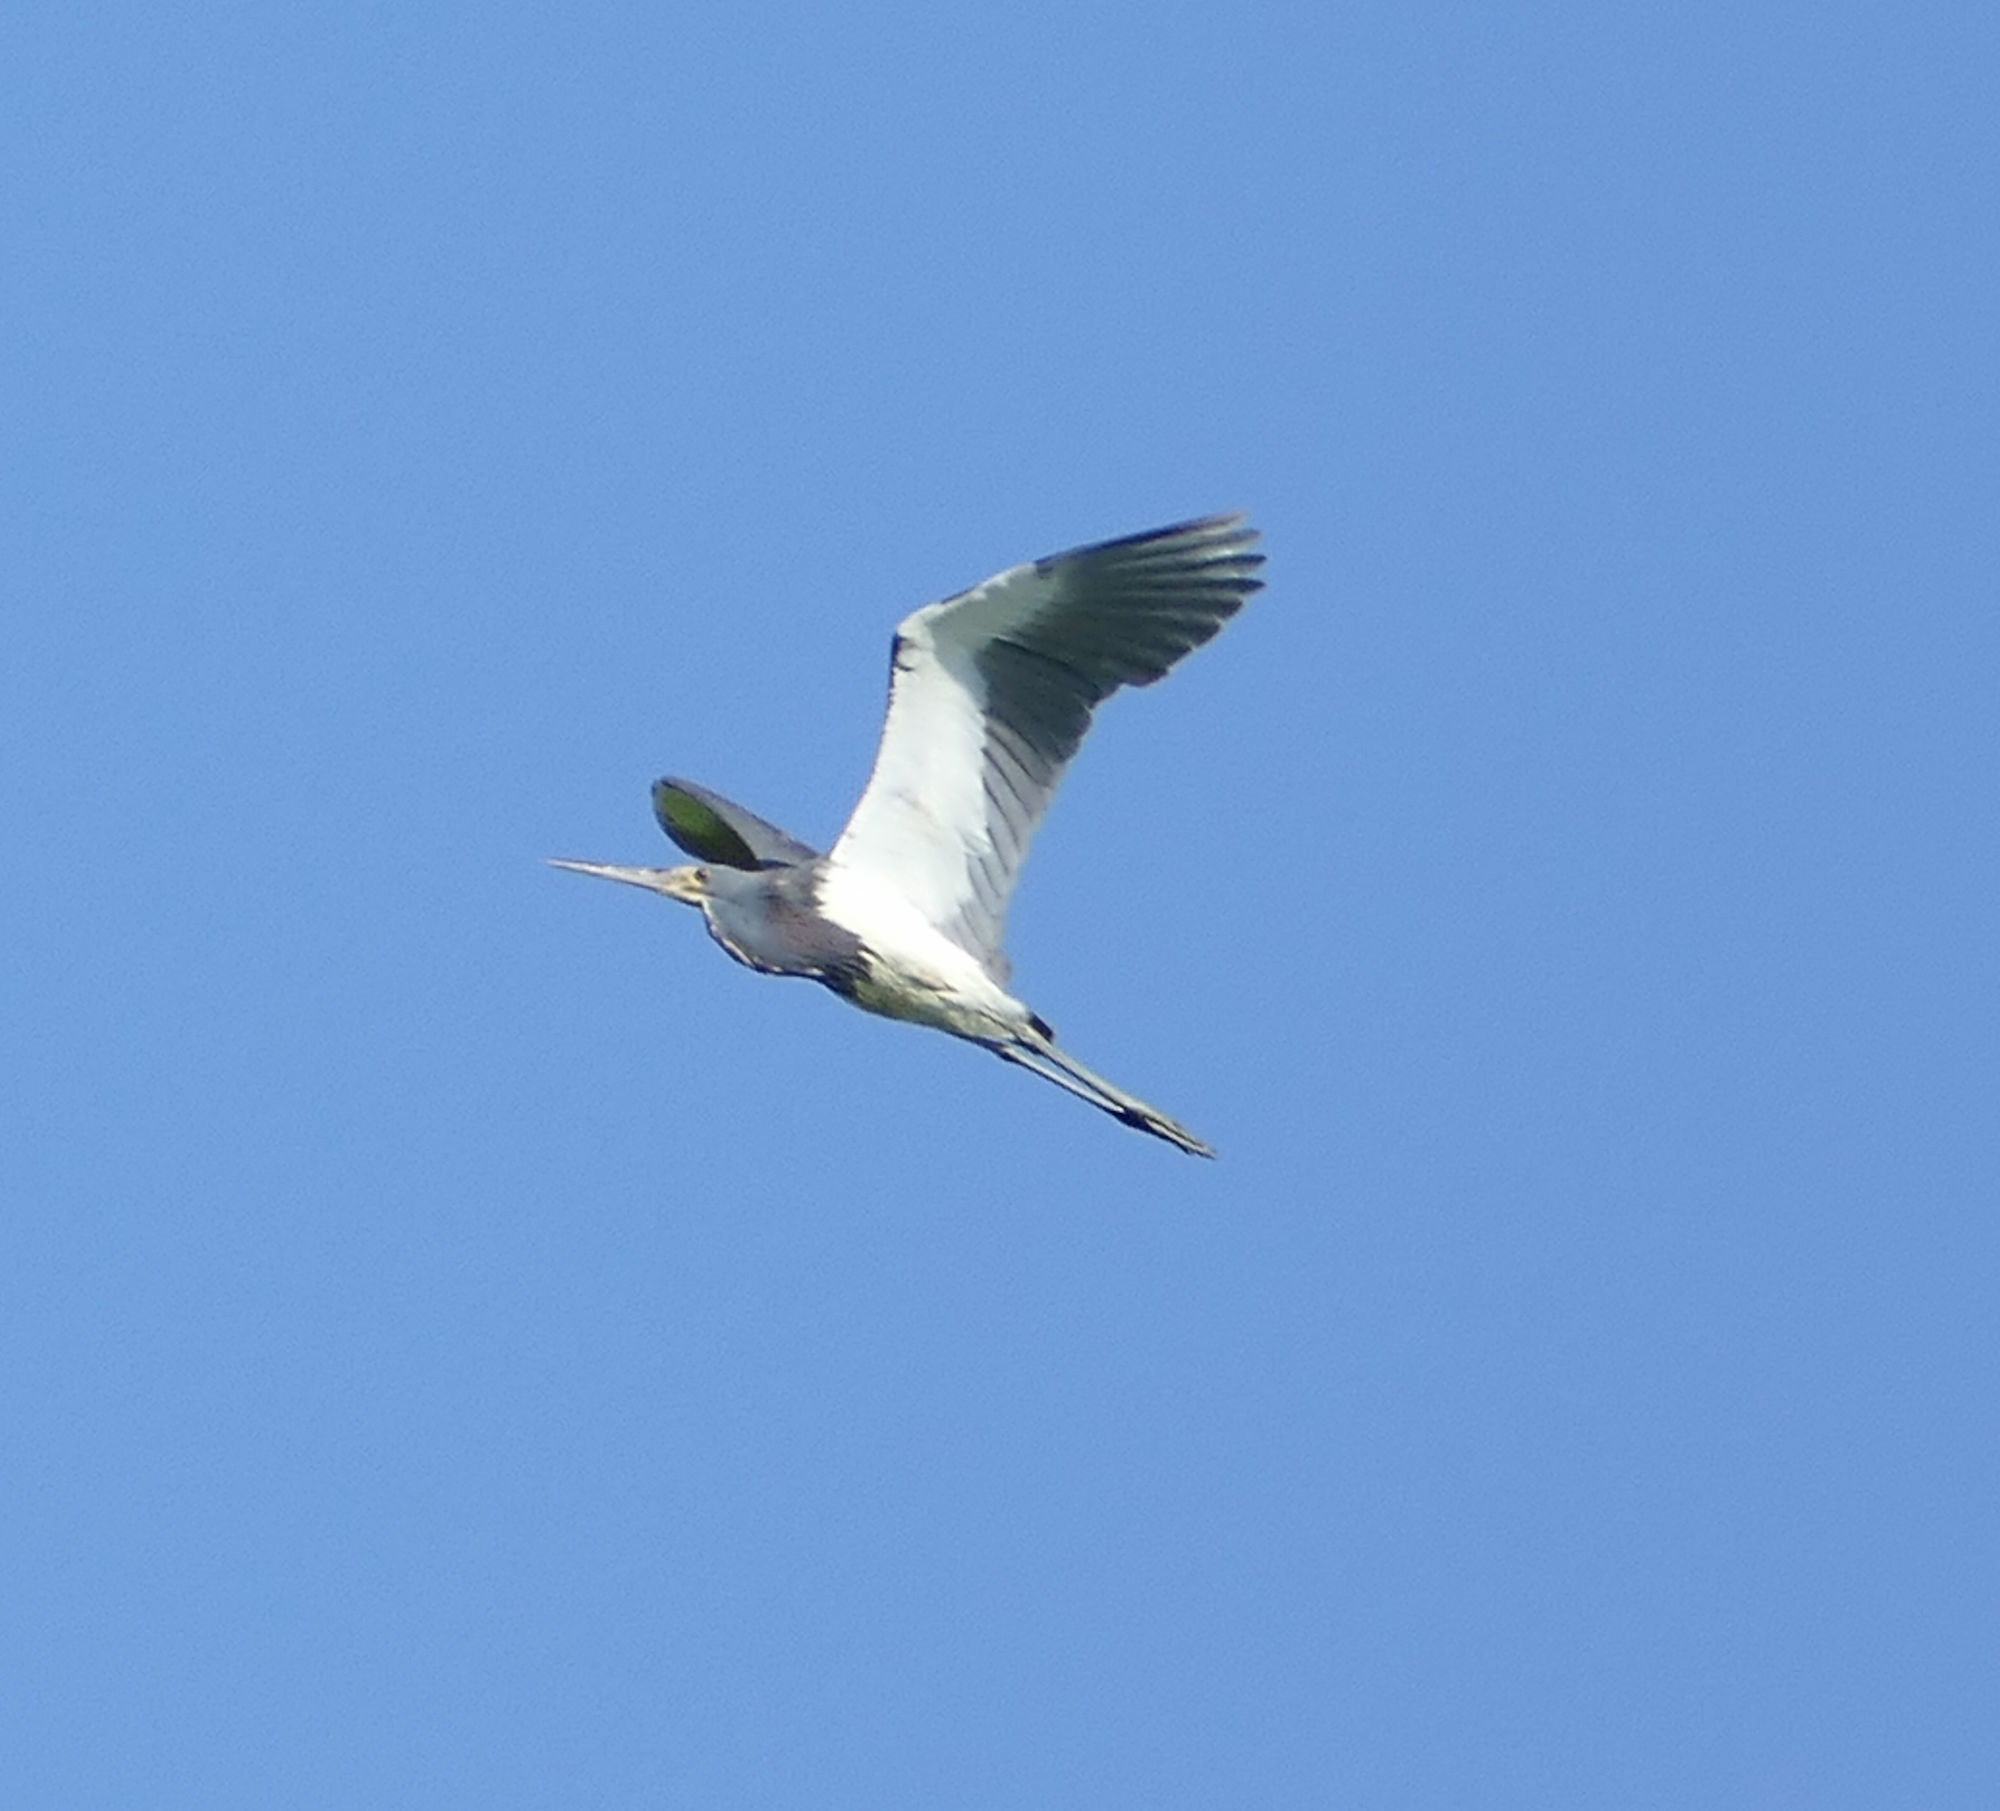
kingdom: Animalia
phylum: Chordata
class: Aves
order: Pelecaniformes
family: Ardeidae
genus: Egretta
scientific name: Egretta tricolor
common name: Tricolored heron
